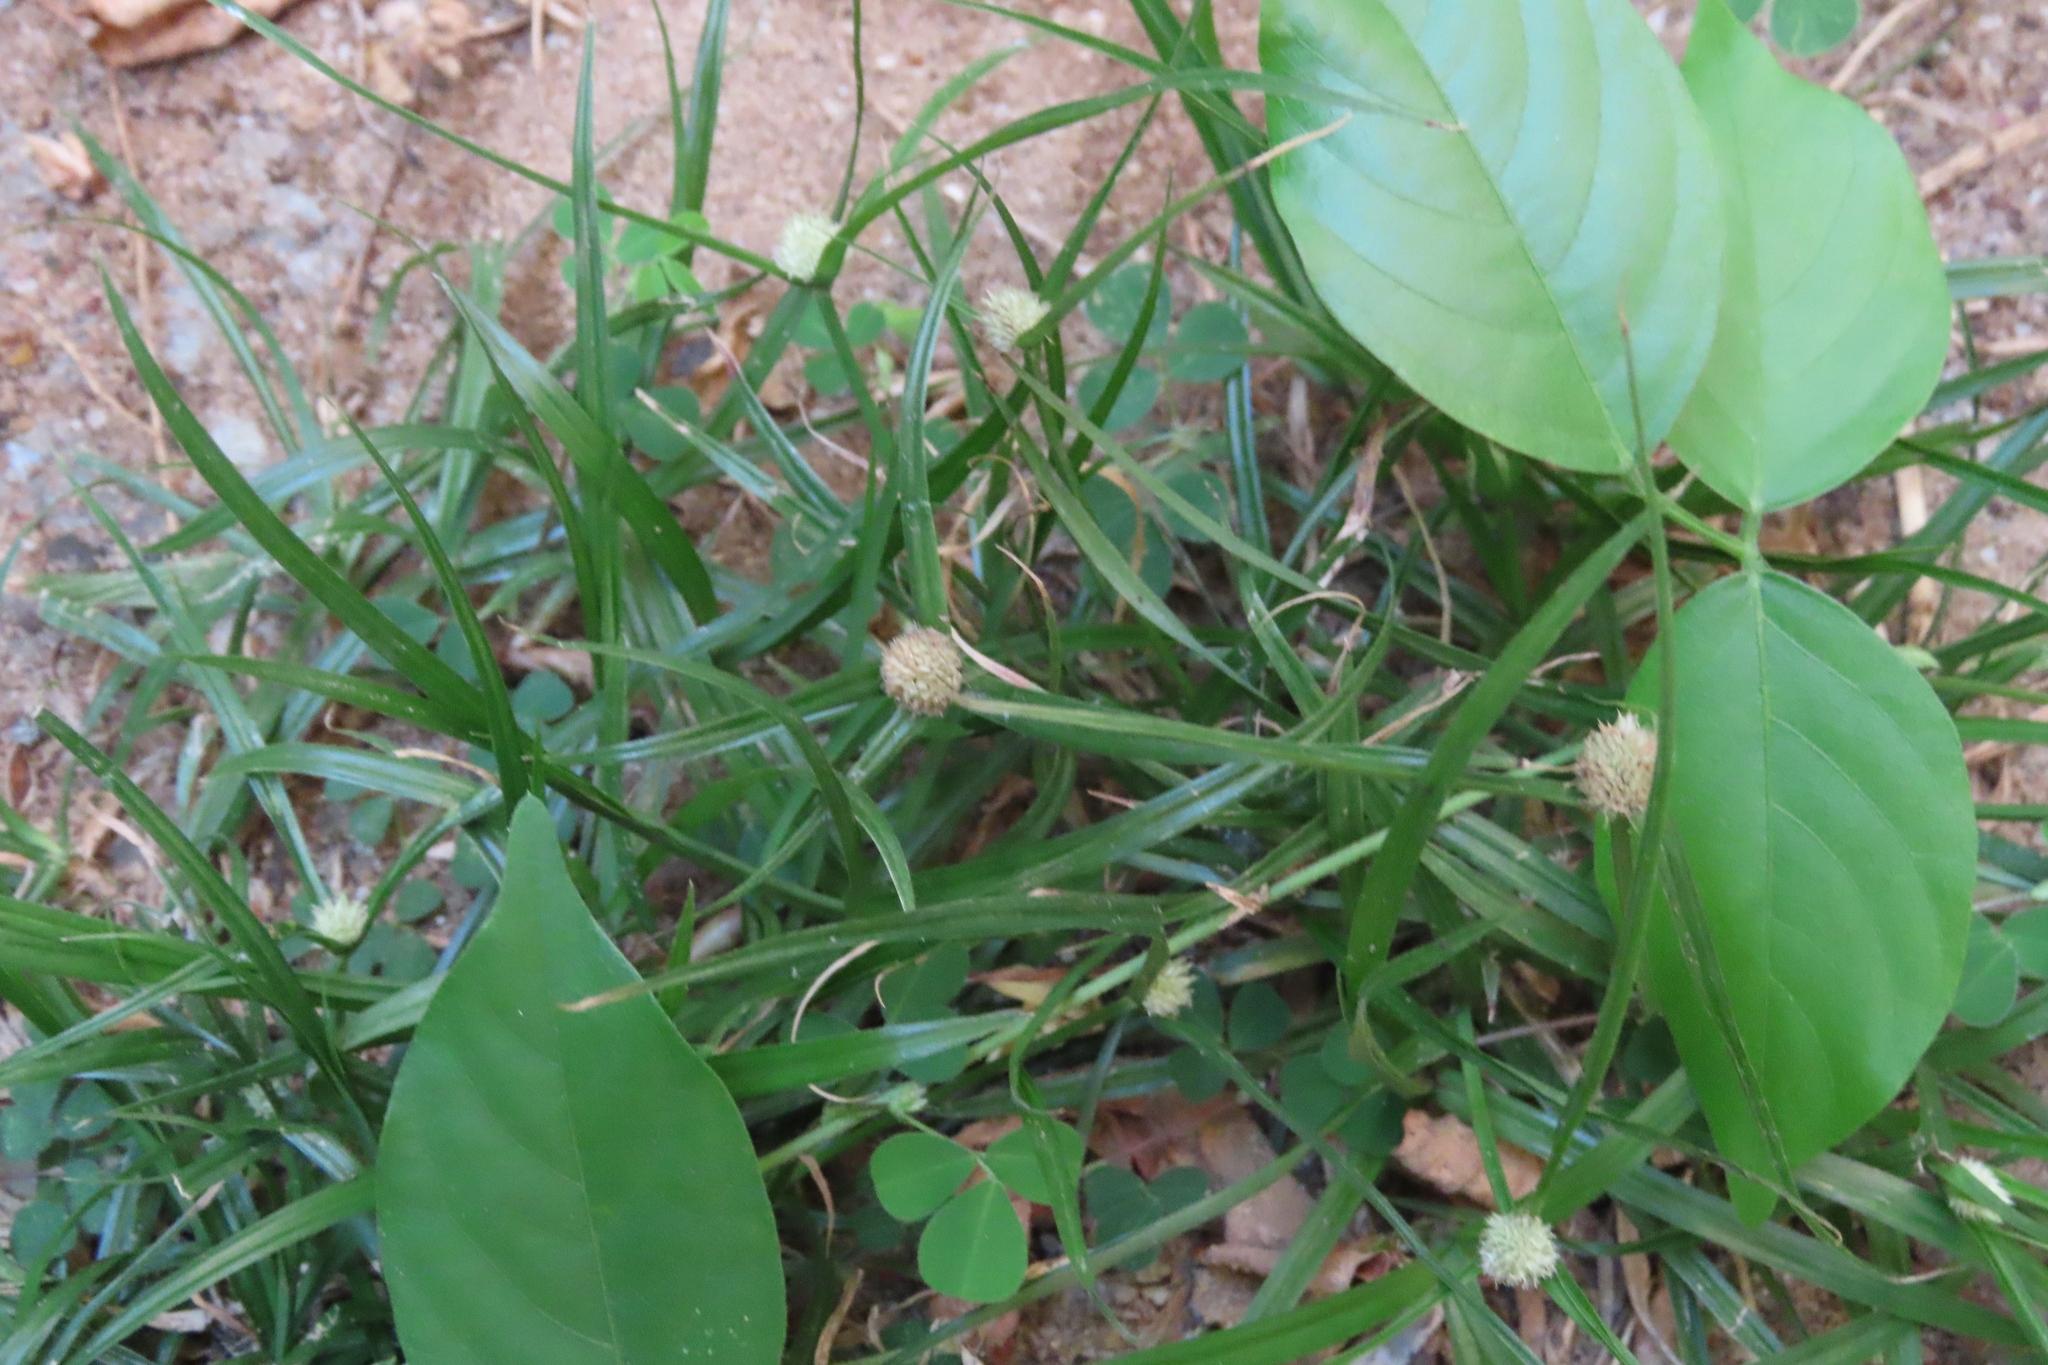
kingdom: Plantae
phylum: Tracheophyta
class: Liliopsida
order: Poales
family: Cyperaceae
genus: Cyperus
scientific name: Cyperus mindorensis
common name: Flatsedge
